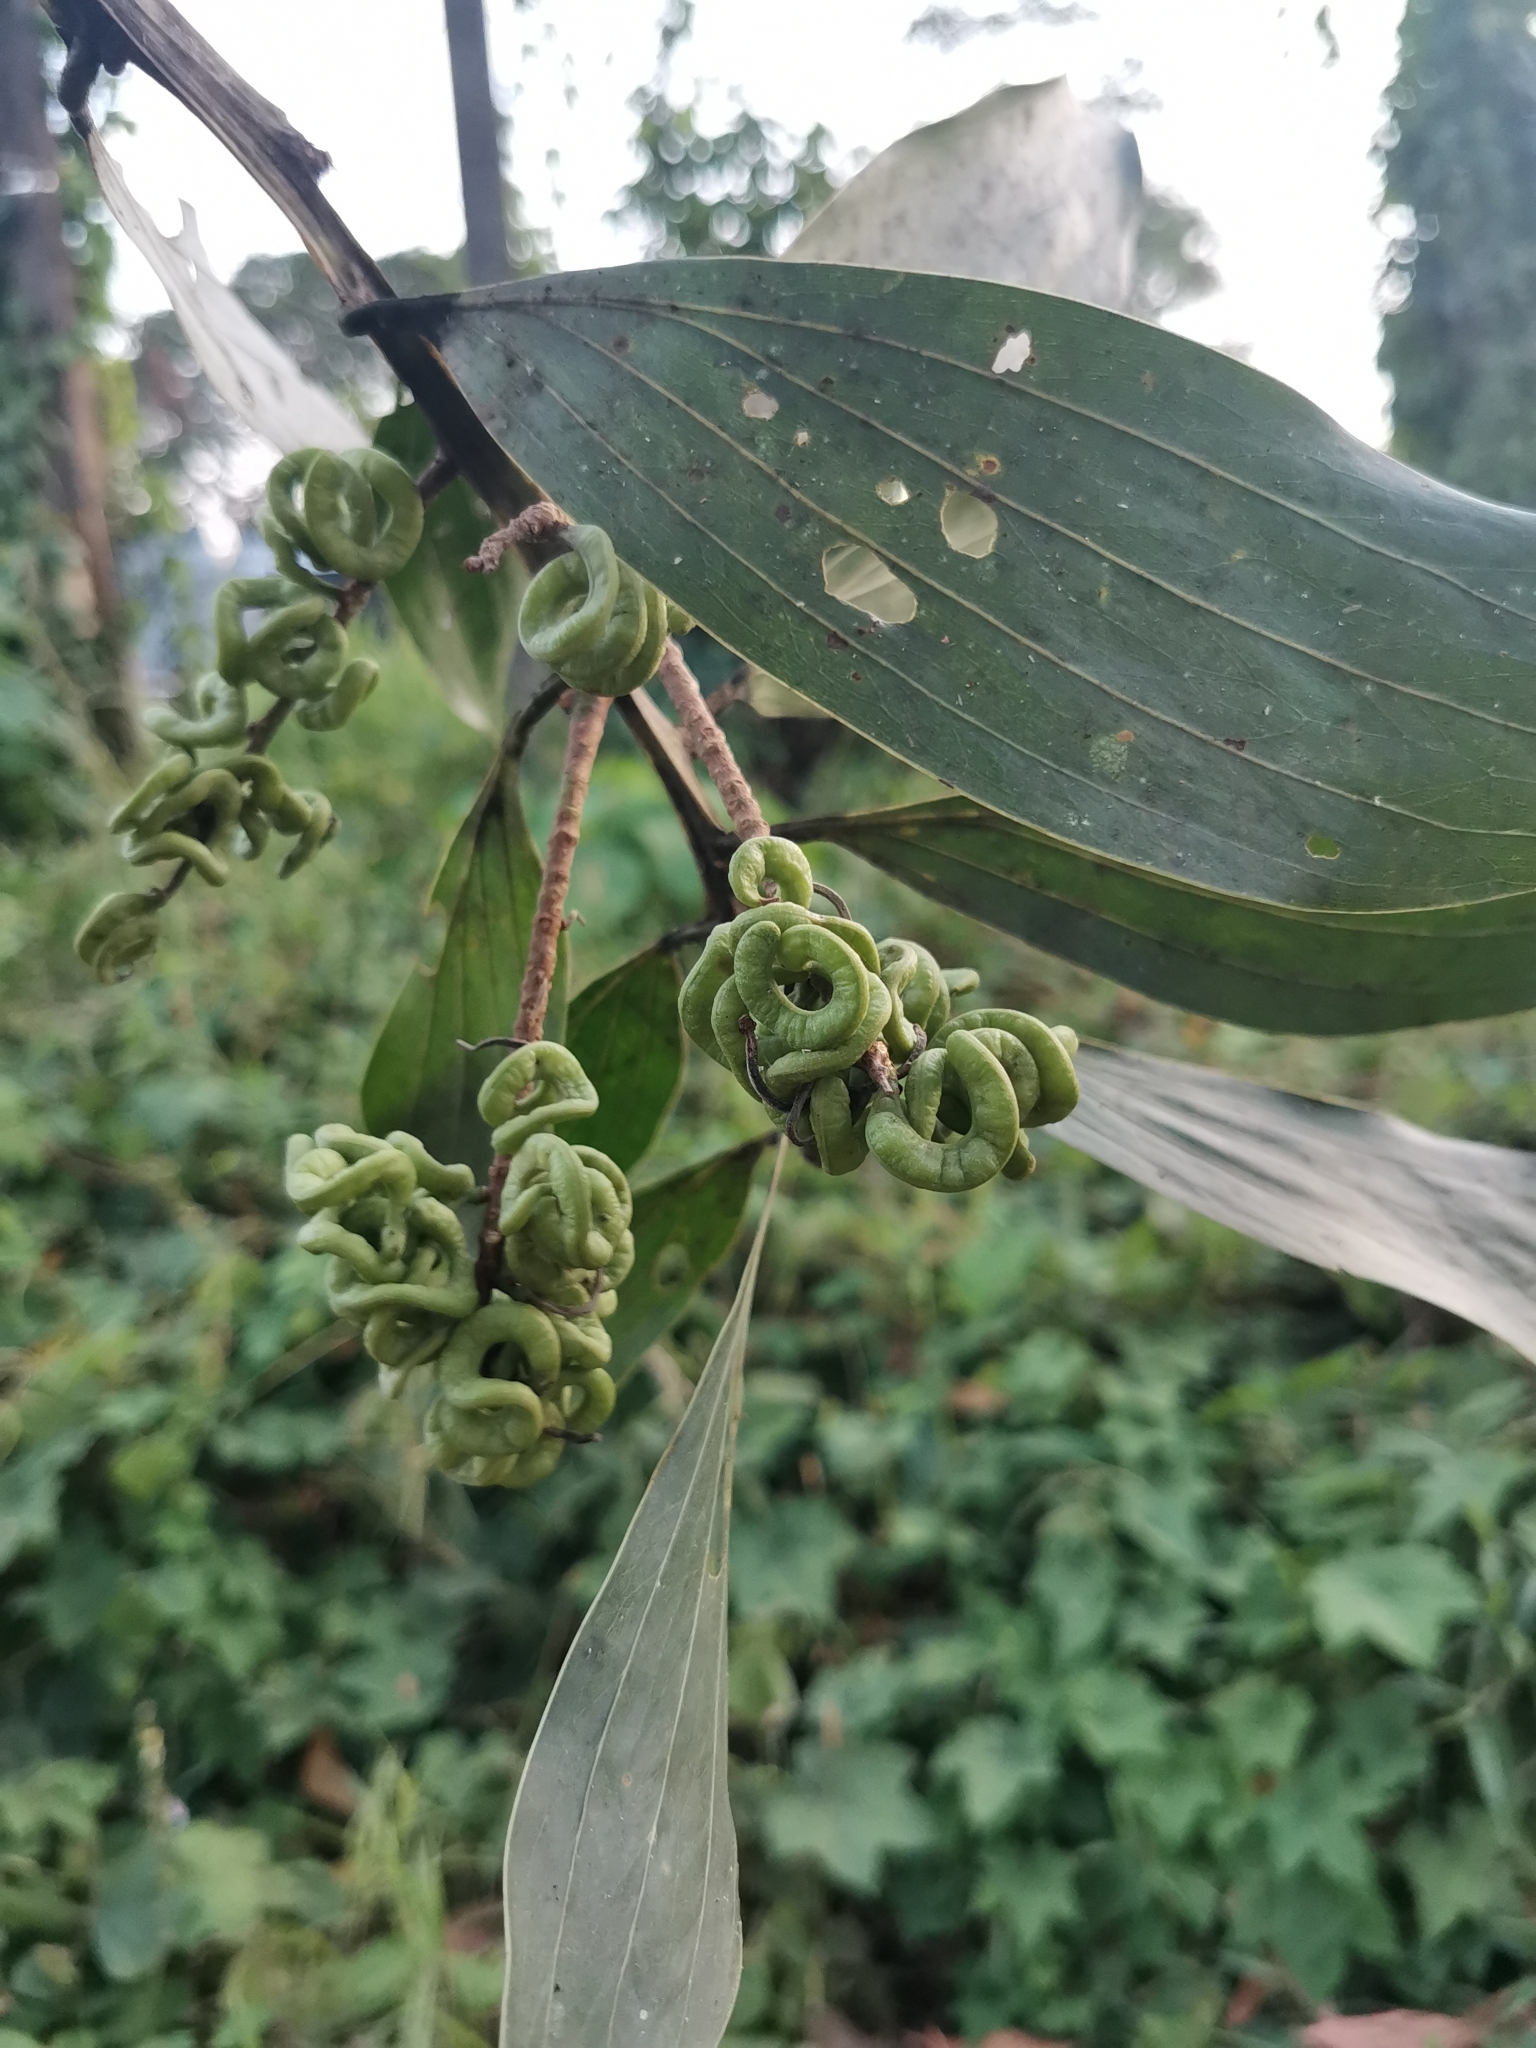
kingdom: Plantae
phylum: Tracheophyta
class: Magnoliopsida
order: Fabales
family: Fabaceae
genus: Acacia
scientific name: Acacia mangium
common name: Black wattle
